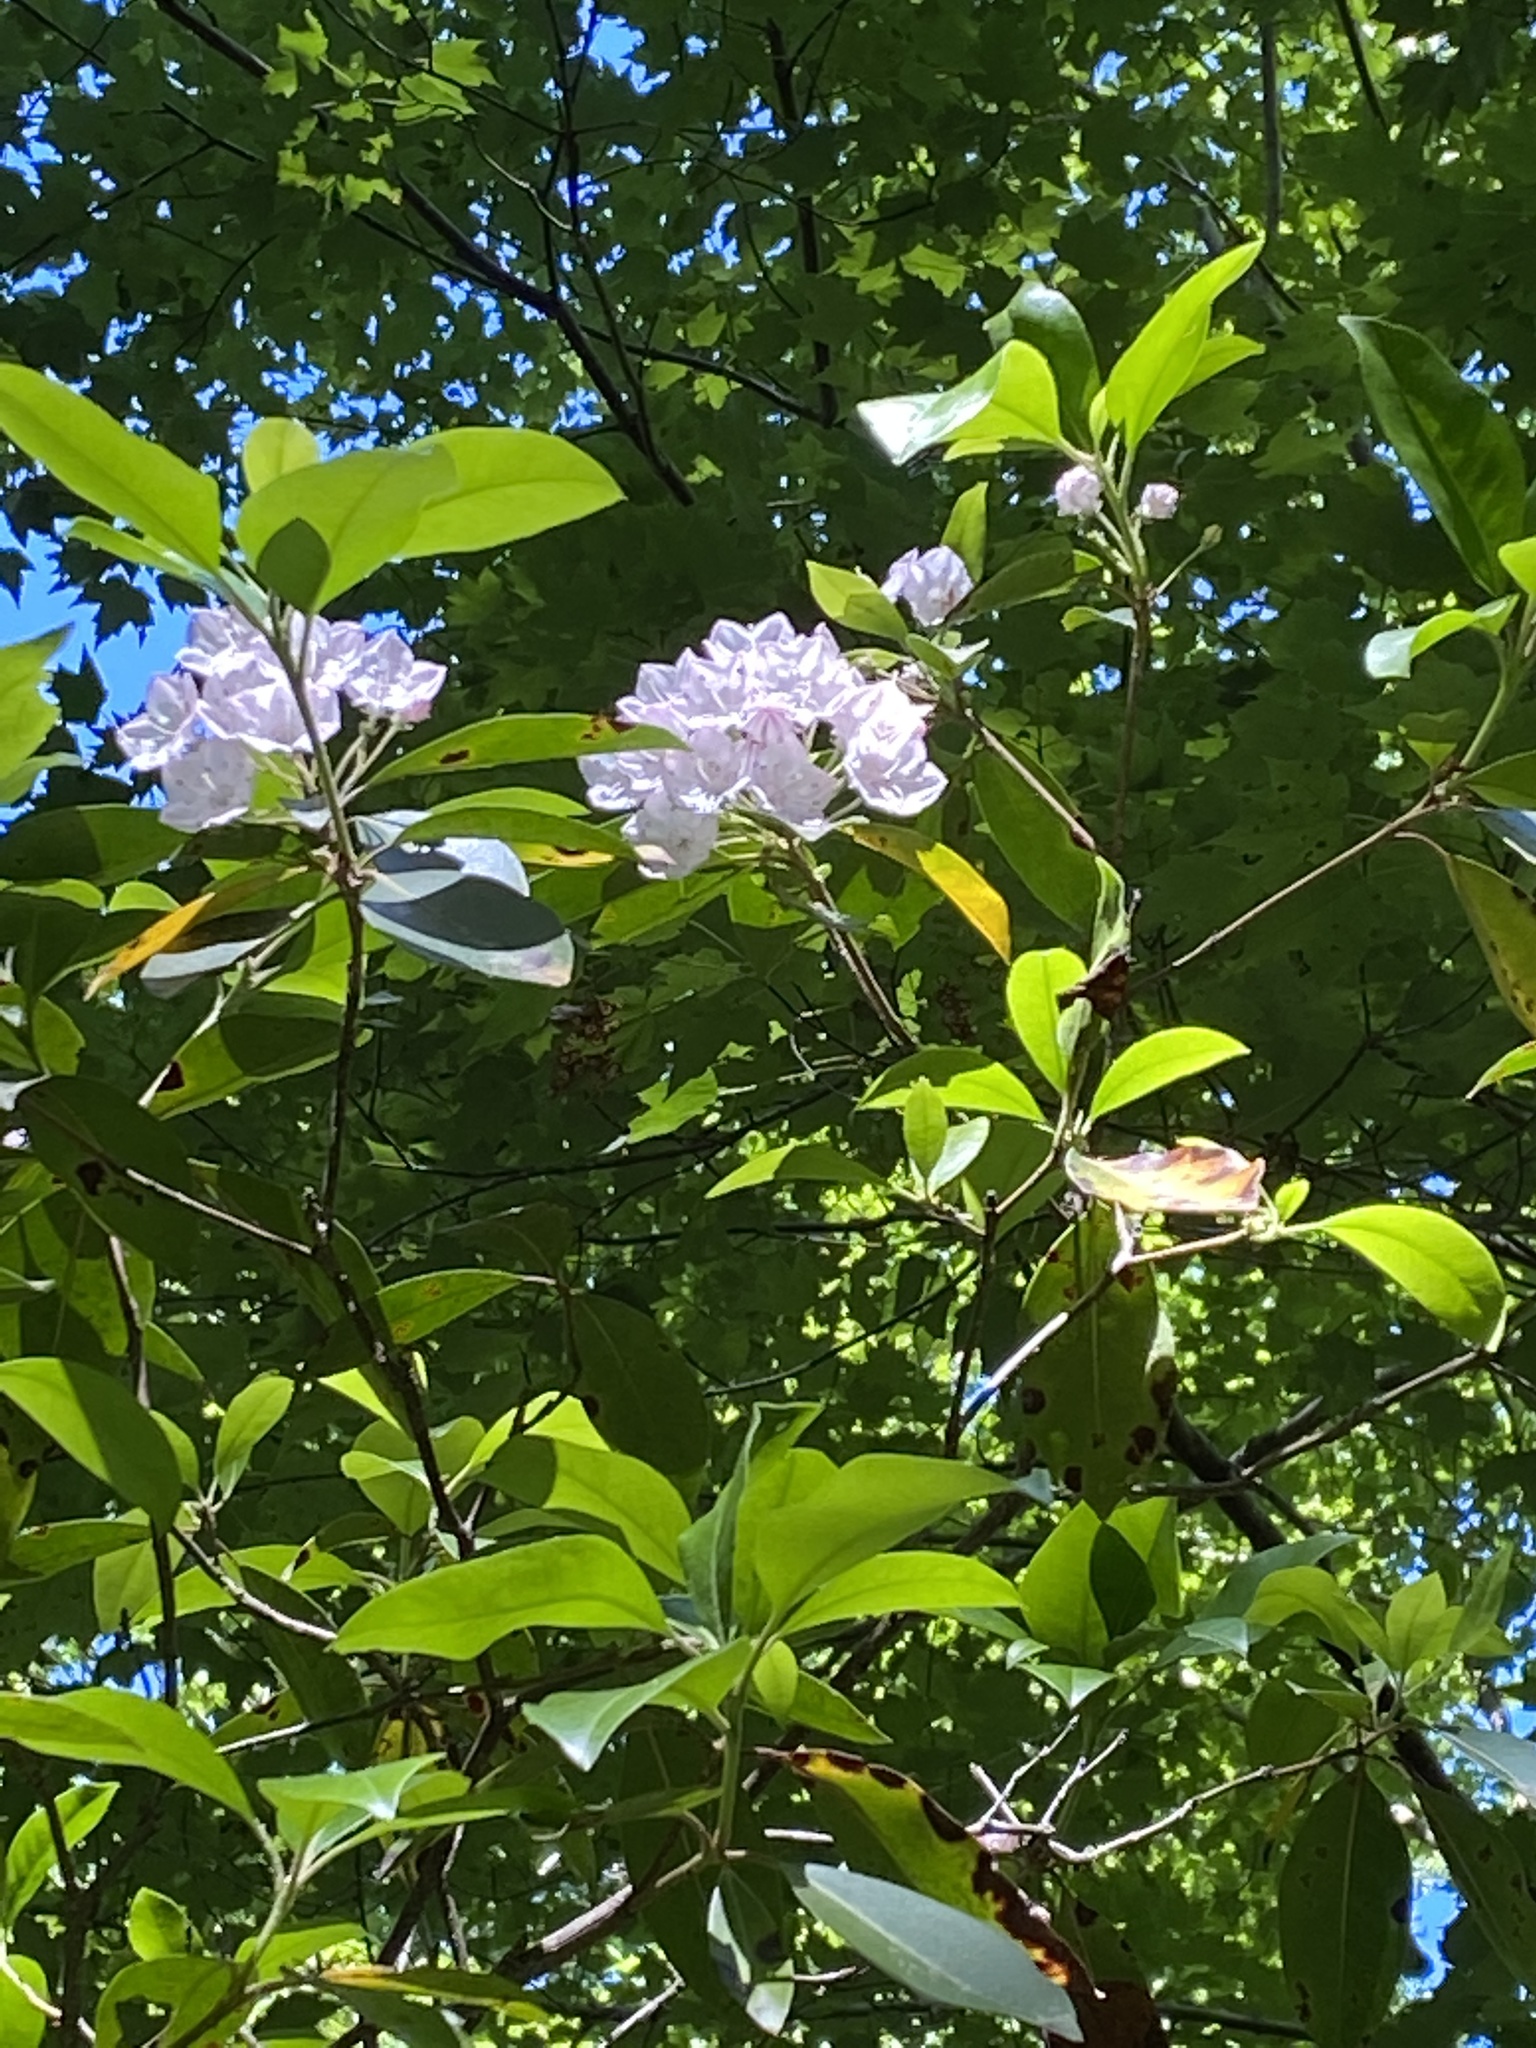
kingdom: Plantae
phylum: Tracheophyta
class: Magnoliopsida
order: Ericales
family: Ericaceae
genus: Kalmia
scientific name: Kalmia latifolia
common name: Mountain-laurel
